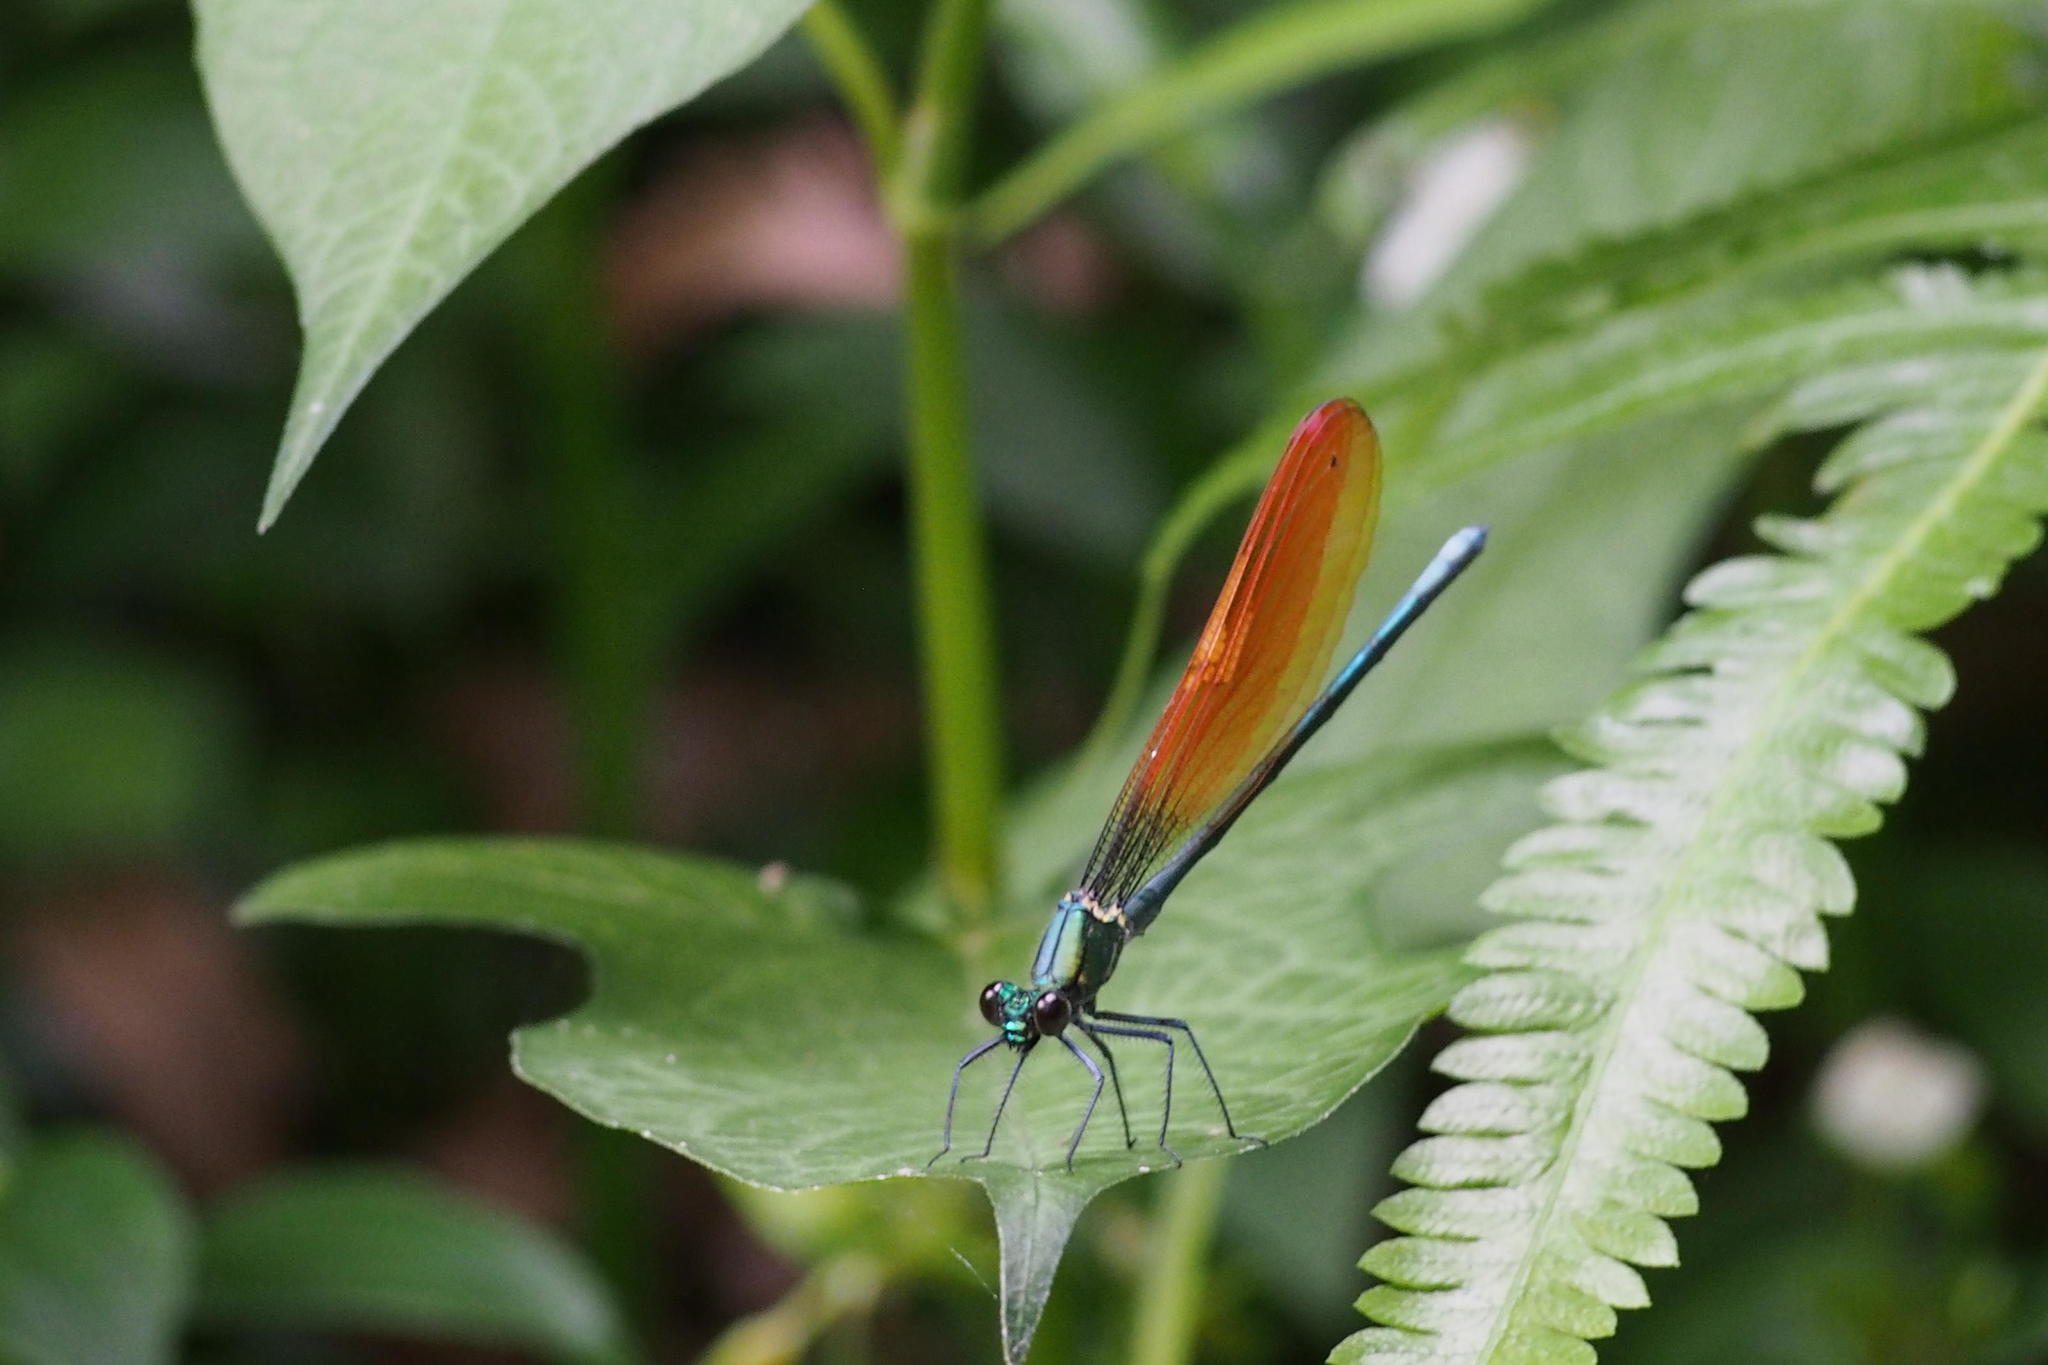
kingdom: Animalia
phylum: Arthropoda
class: Insecta
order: Odonata
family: Calopterygidae
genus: Mnais
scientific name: Mnais pruinosa
